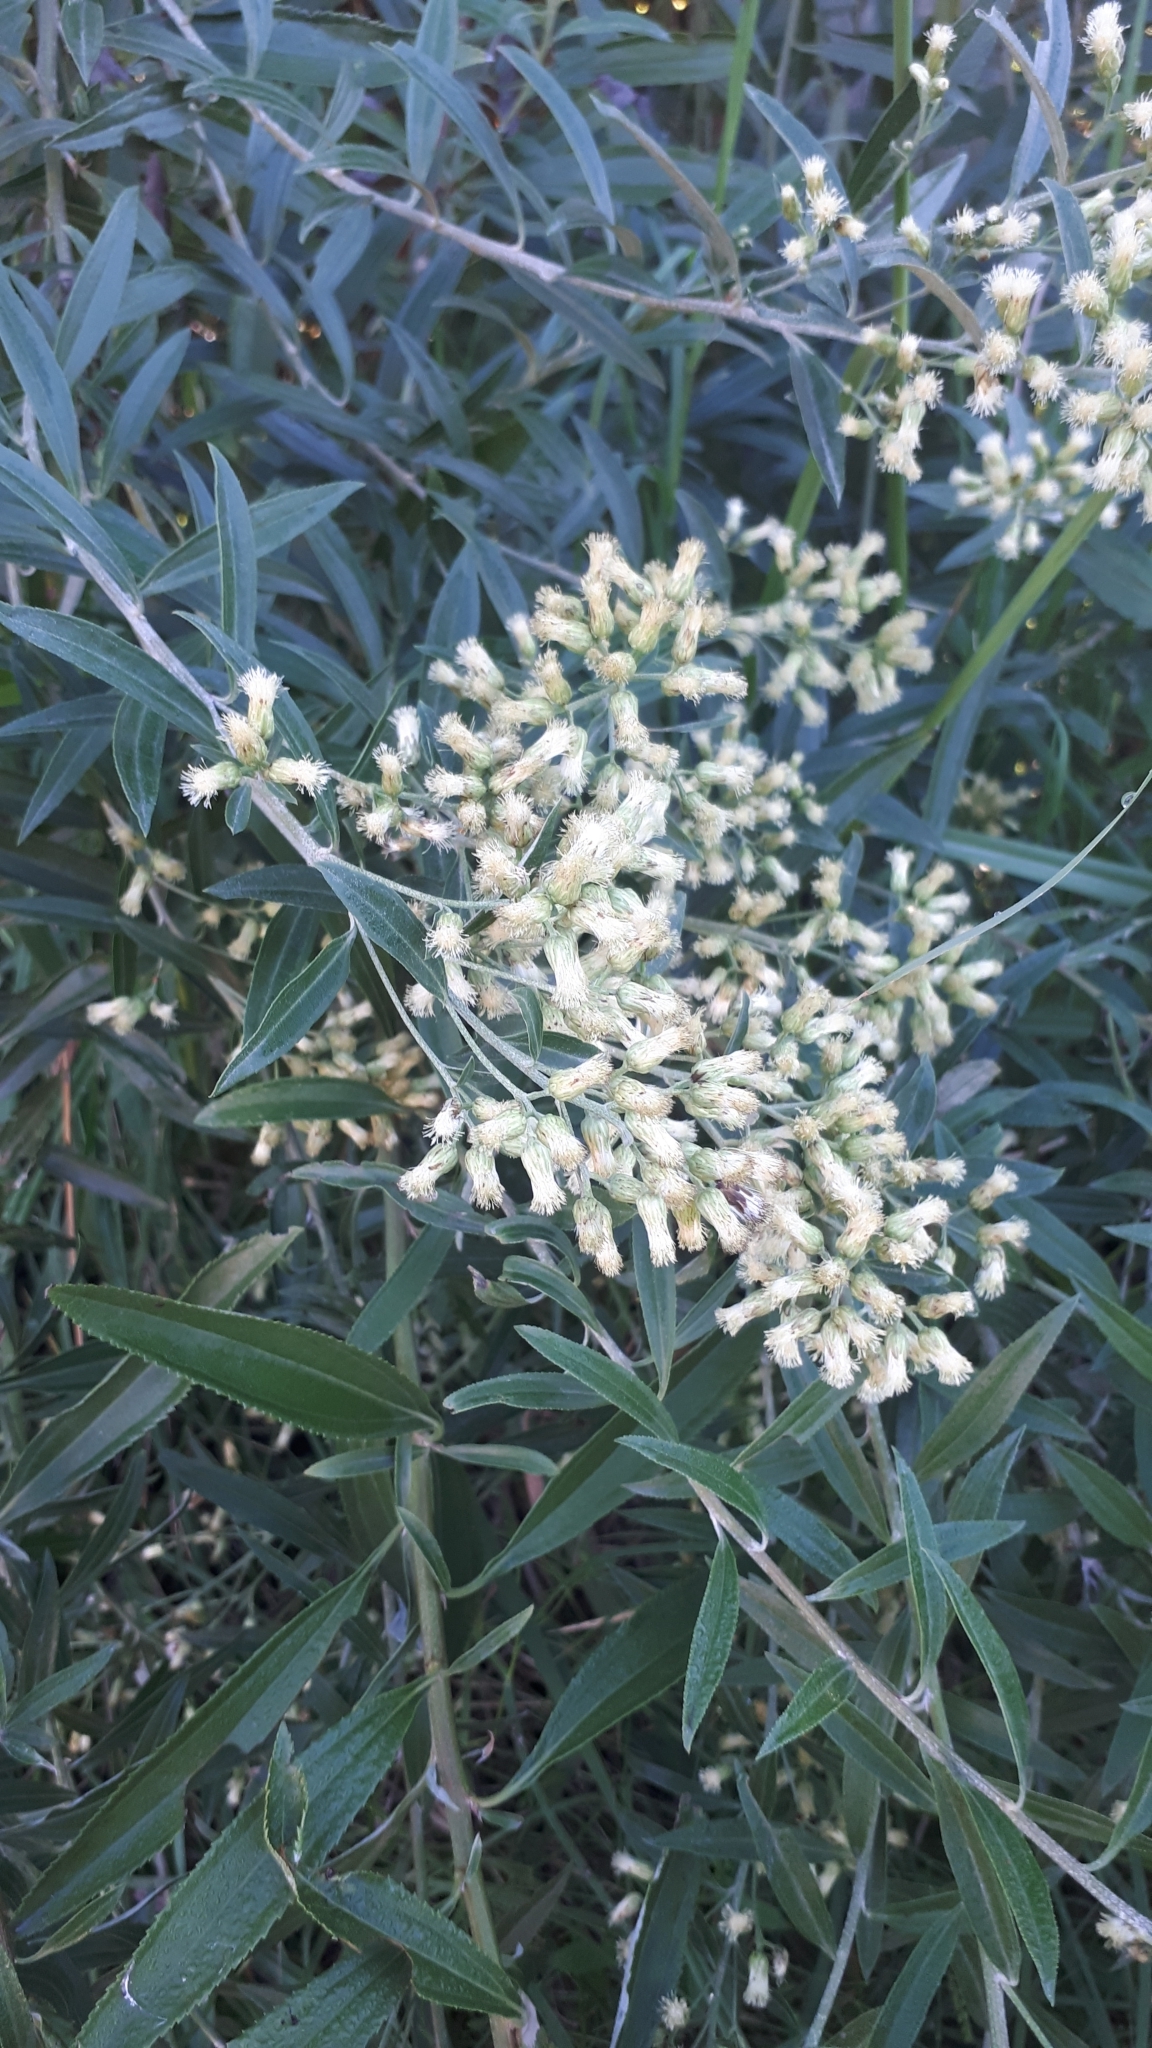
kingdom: Plantae
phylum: Tracheophyta
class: Magnoliopsida
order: Asterales
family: Asteraceae
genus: Baccharis
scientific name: Baccharis punctulata
